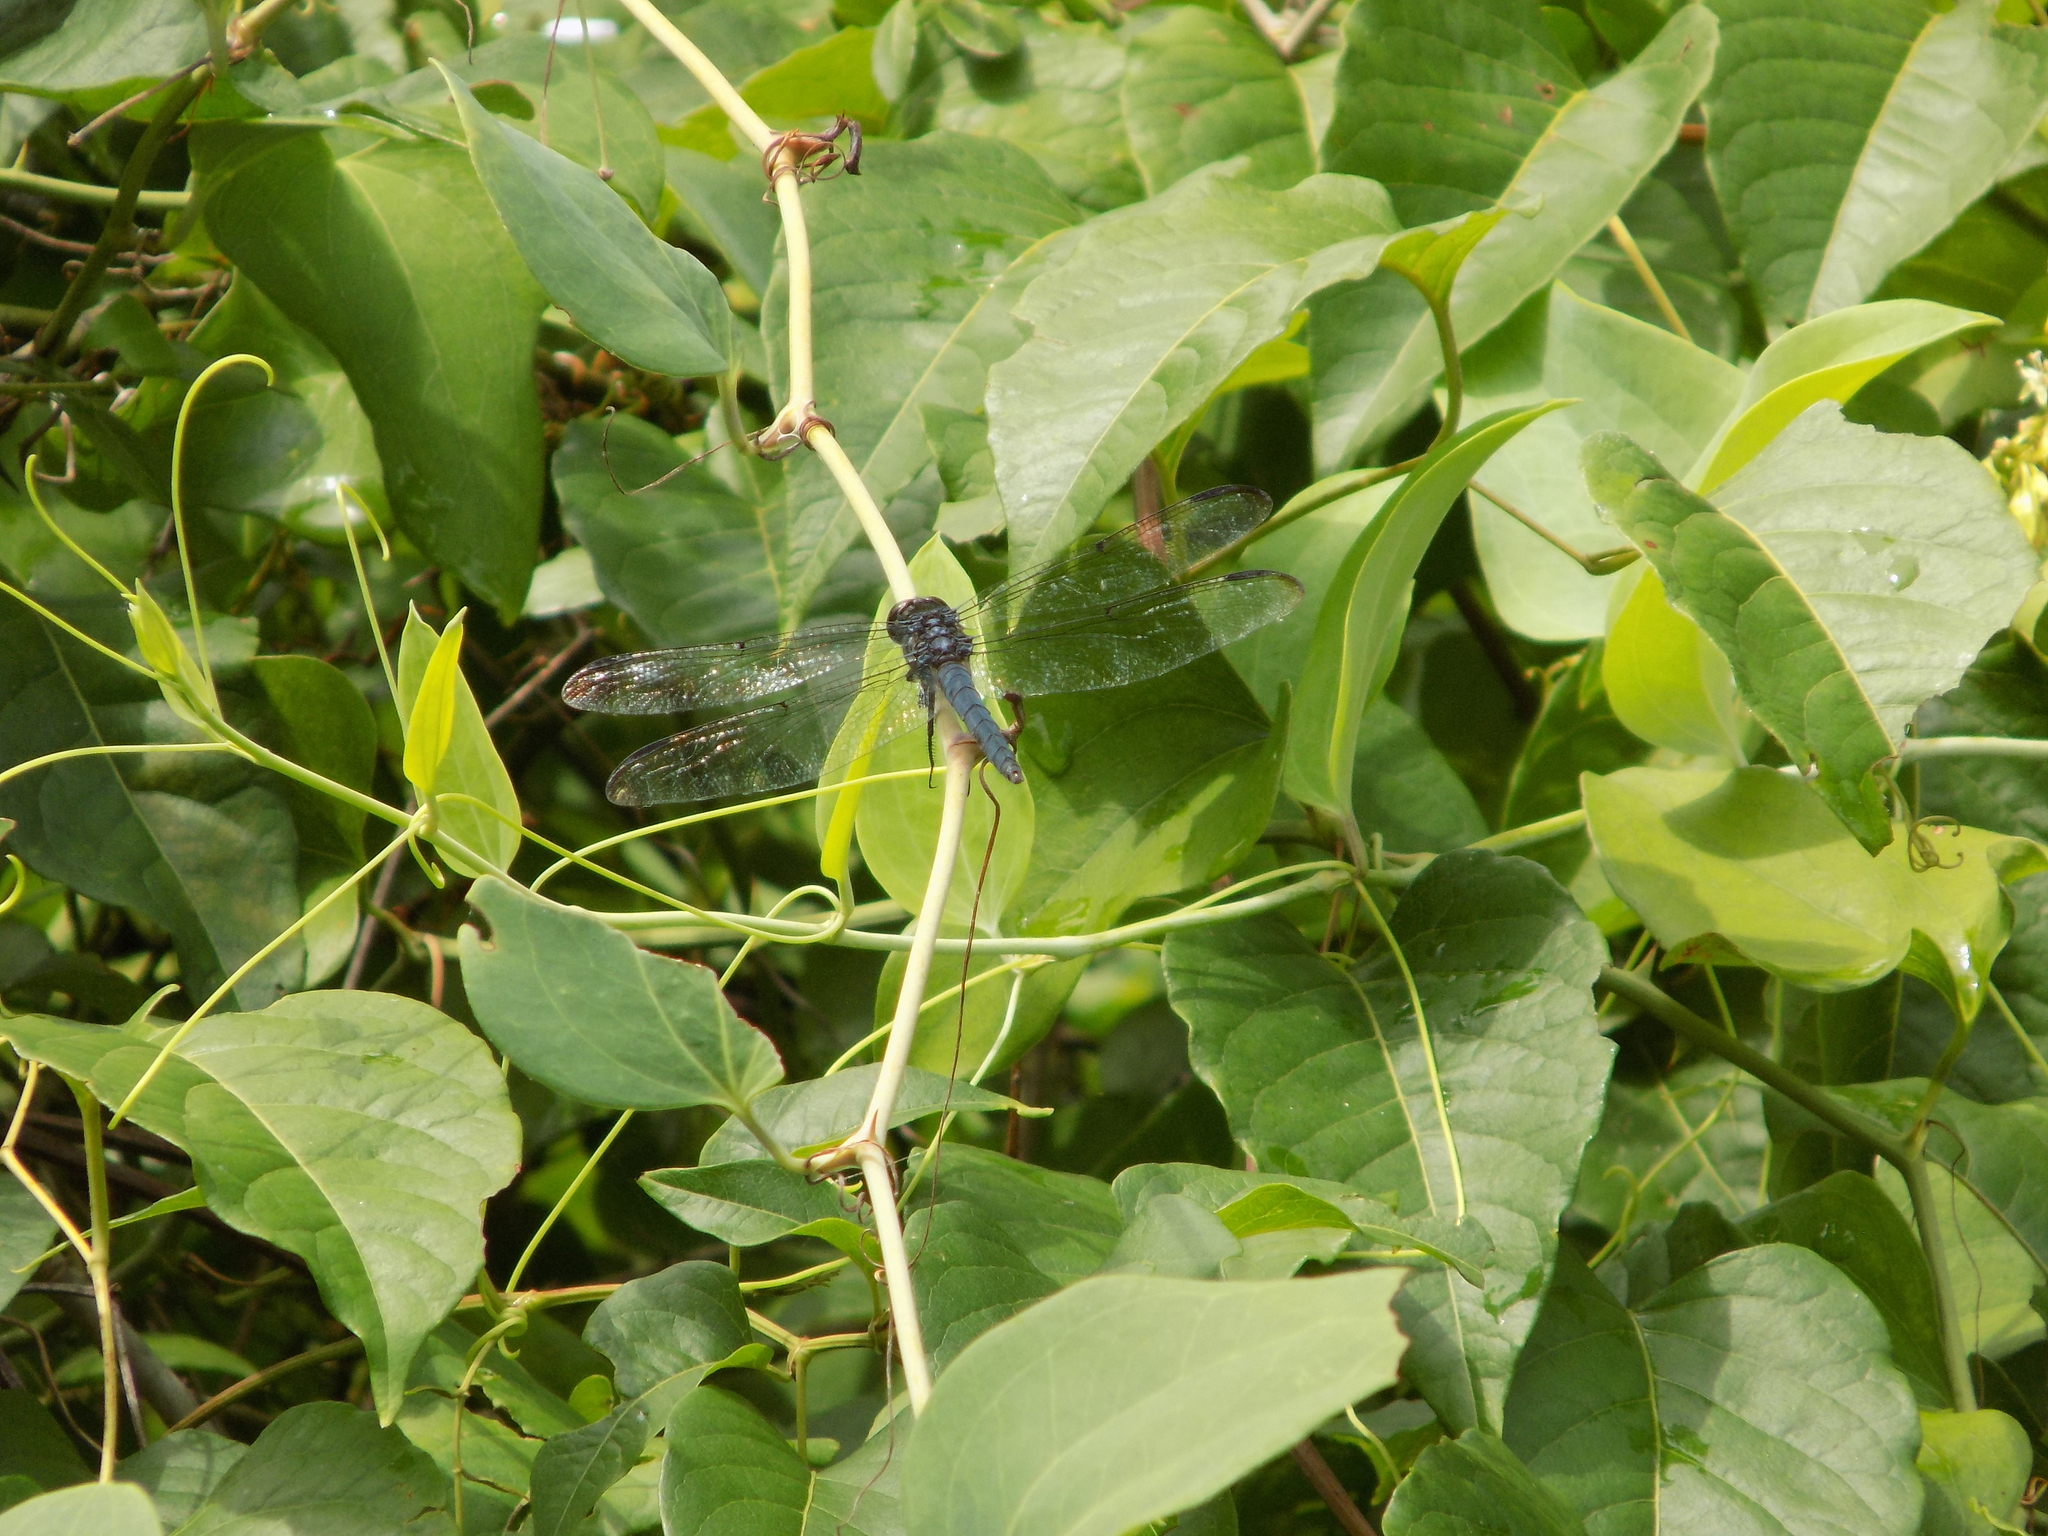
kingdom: Animalia
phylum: Arthropoda
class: Insecta
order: Odonata
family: Libellulidae
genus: Libellula
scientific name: Libellula incesta
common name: Slaty skimmer
